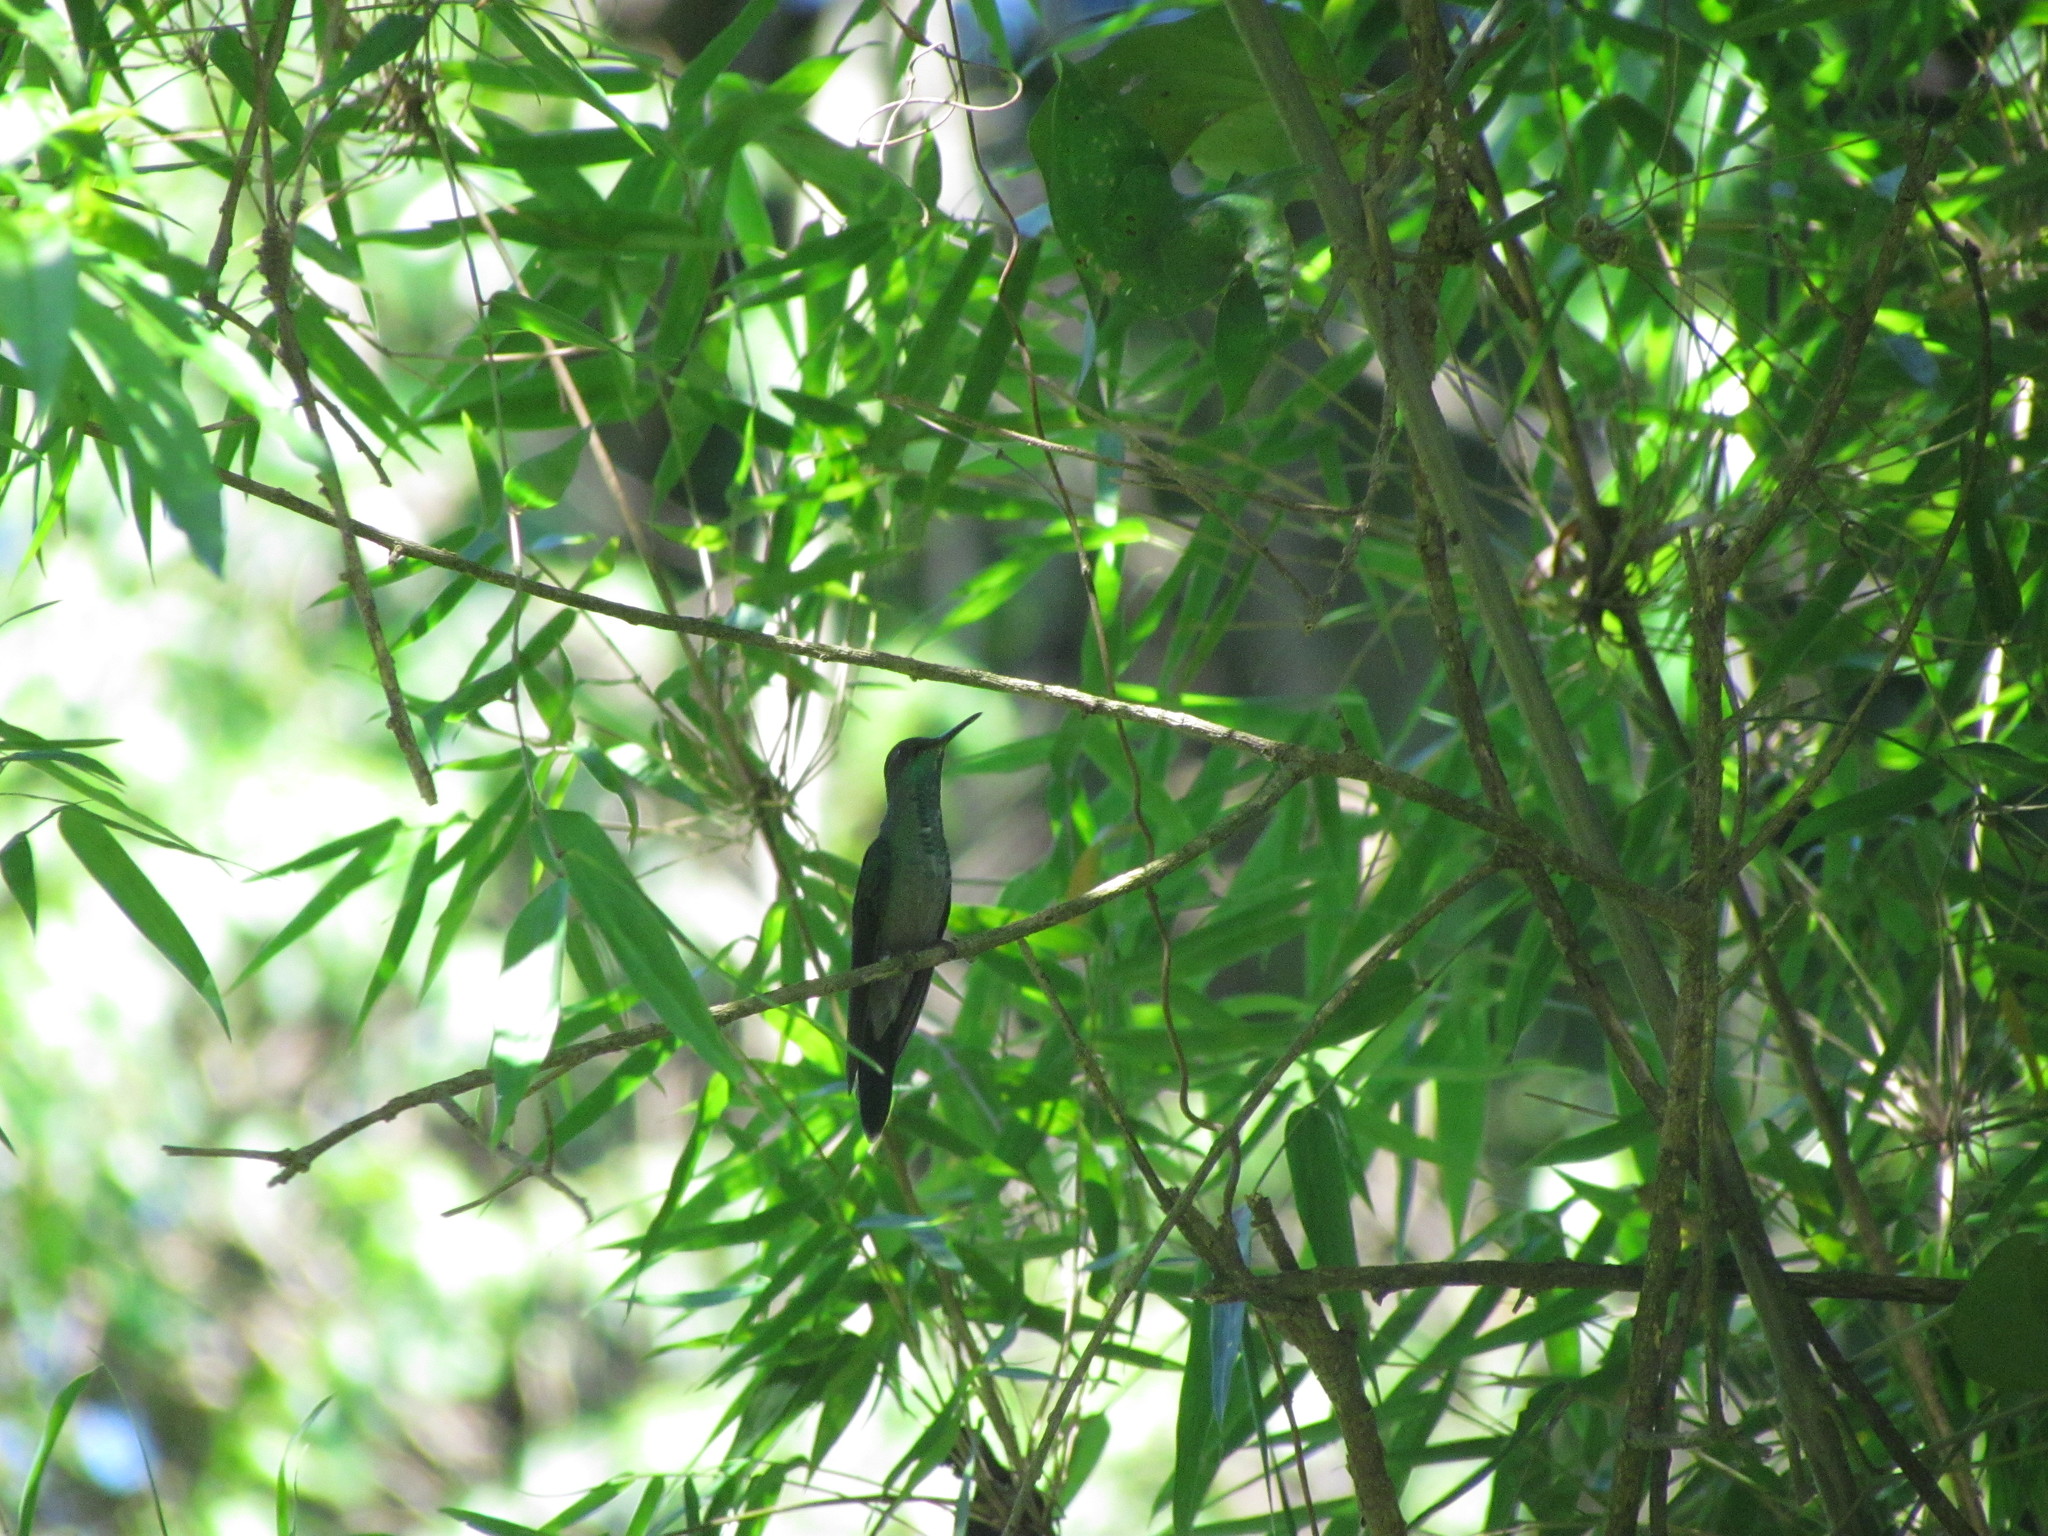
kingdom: Animalia
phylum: Chordata
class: Aves
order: Apodiformes
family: Trochilidae
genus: Thalurania
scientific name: Thalurania glaucopis
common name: Violet-capped woodnymph
